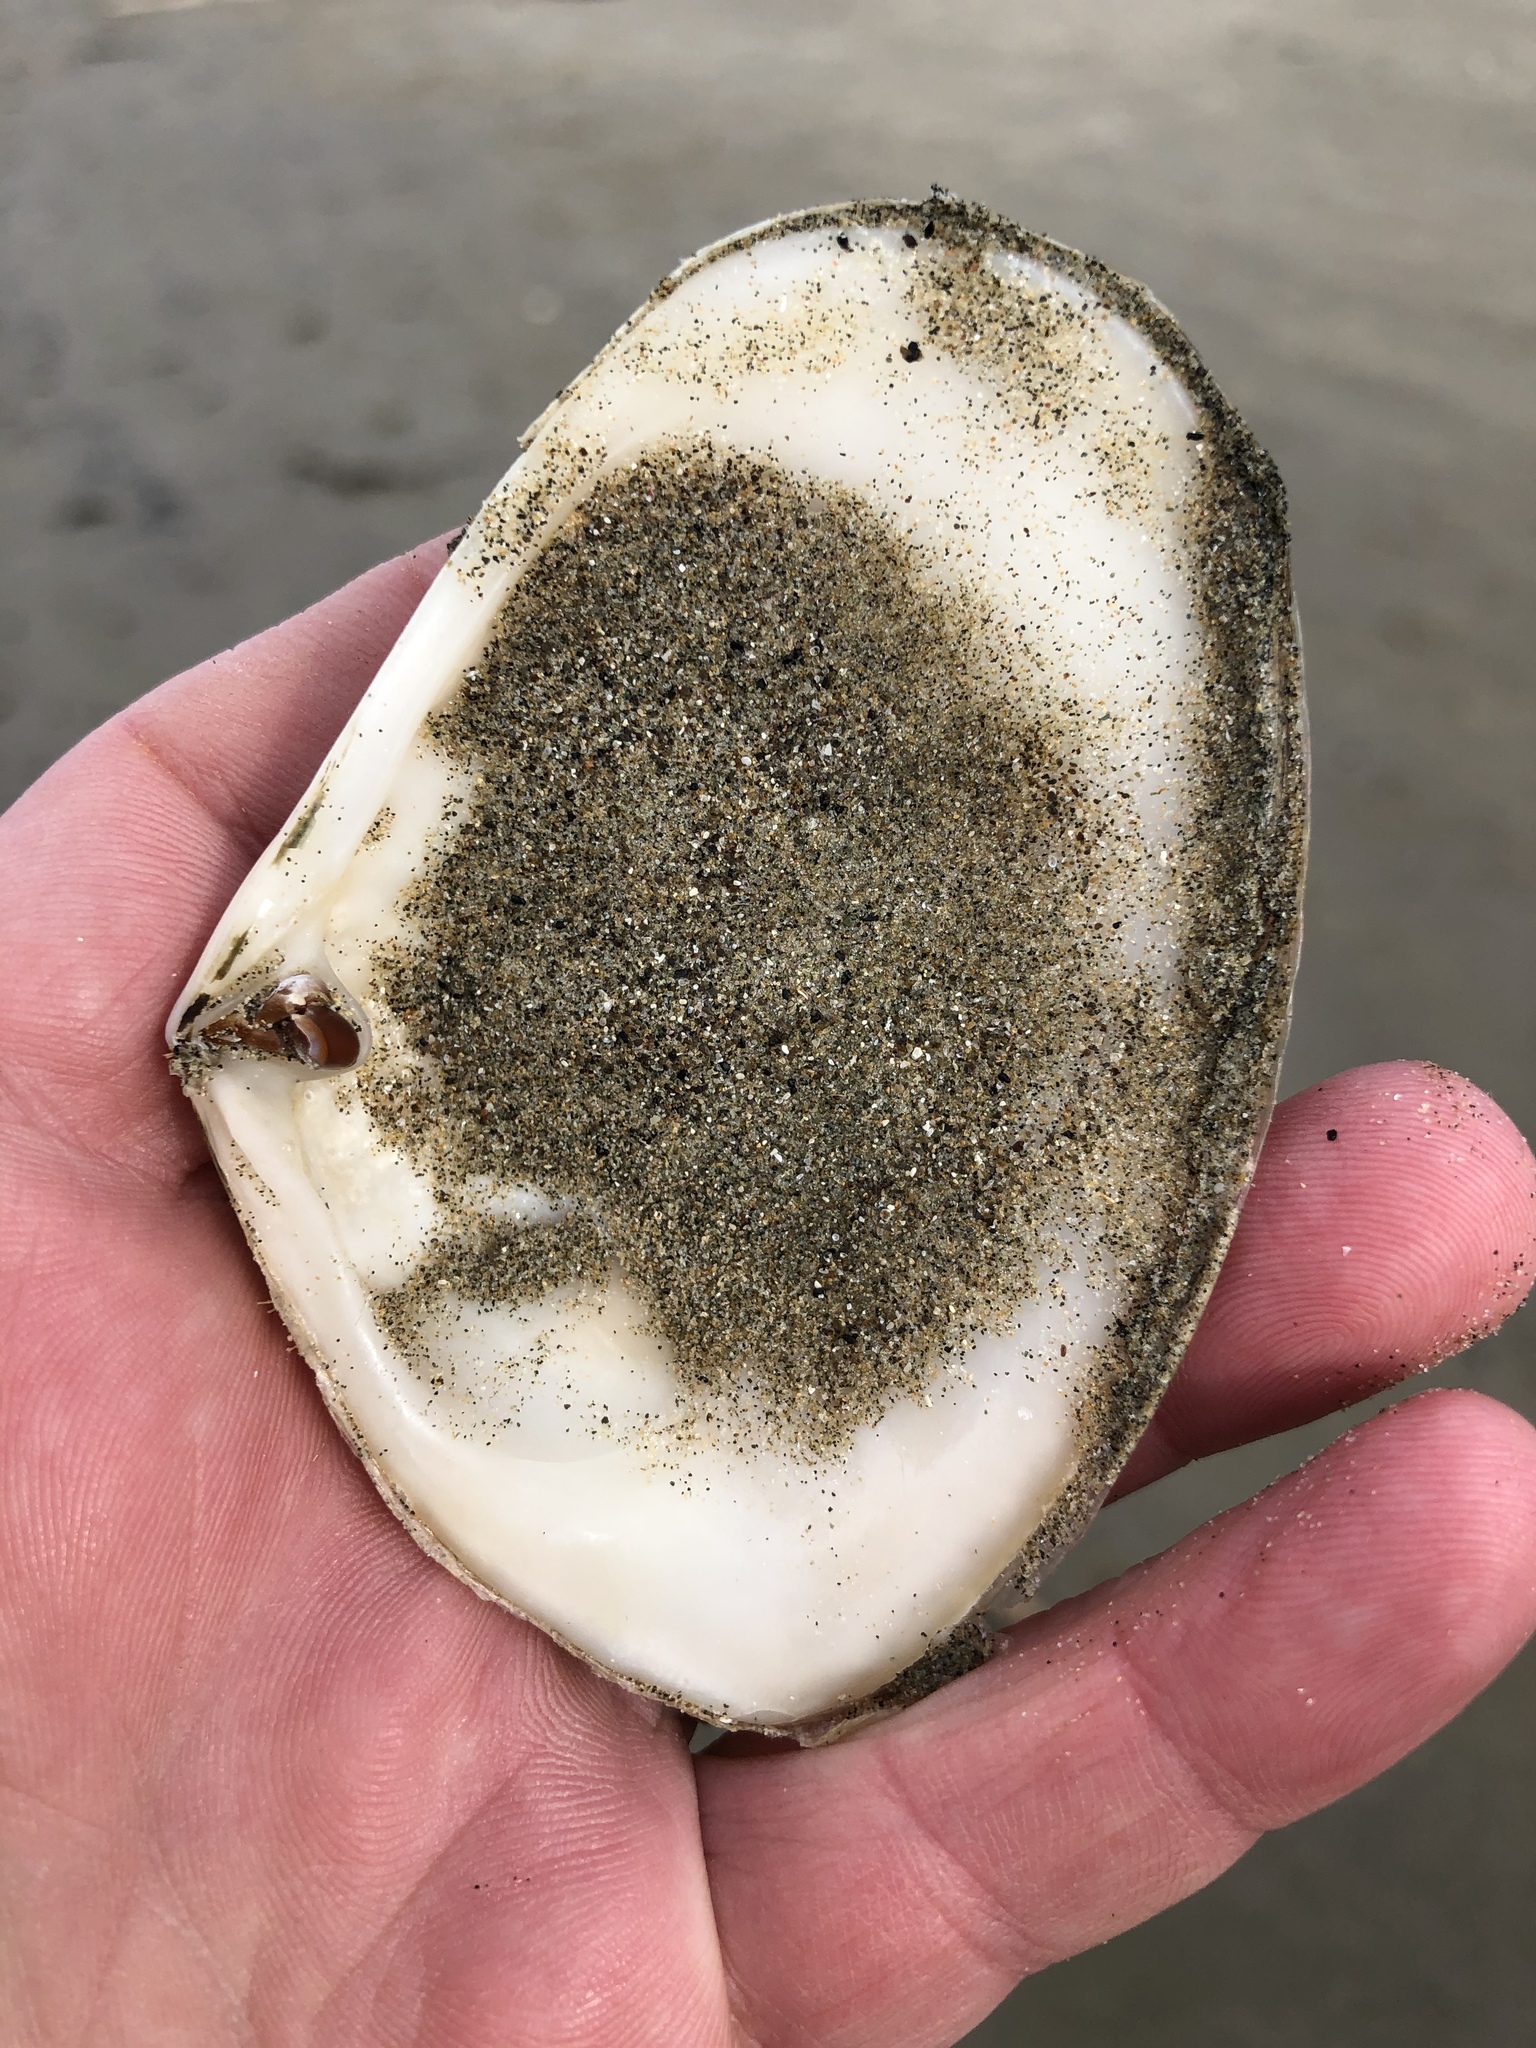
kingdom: Animalia
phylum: Mollusca
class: Bivalvia
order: Venerida
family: Mesodesmatidae
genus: Paphies
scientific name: Paphies donacina
